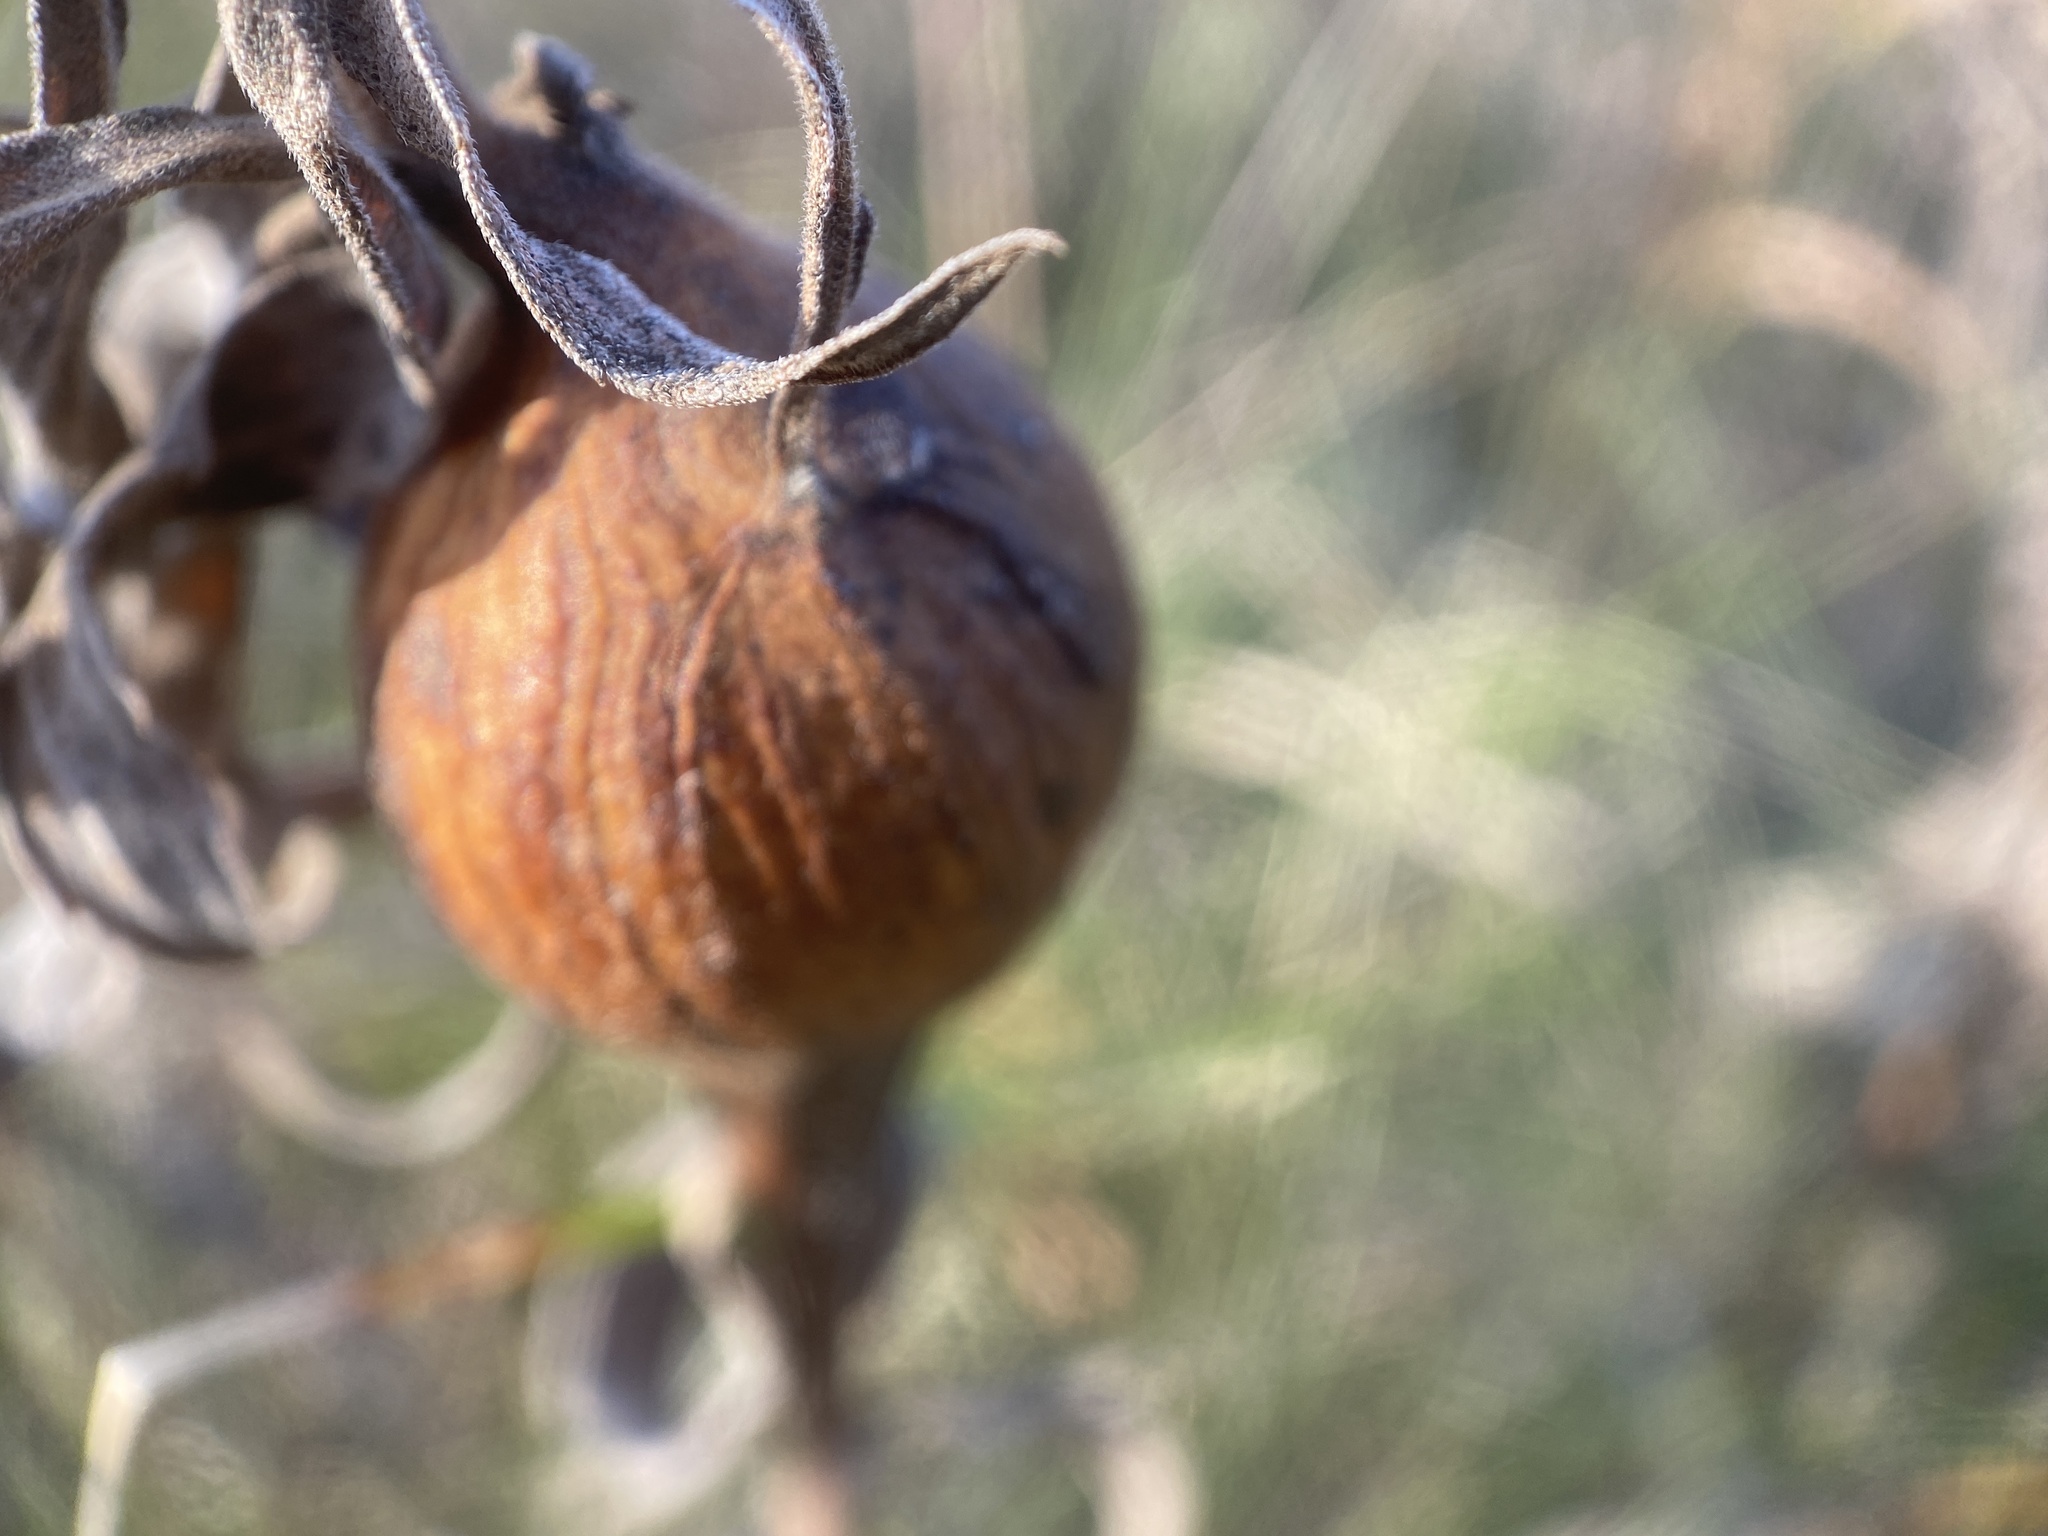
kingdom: Animalia
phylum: Arthropoda
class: Insecta
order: Diptera
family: Tephritidae
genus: Eurosta
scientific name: Eurosta solidaginis
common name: Goldenrod gall fly
